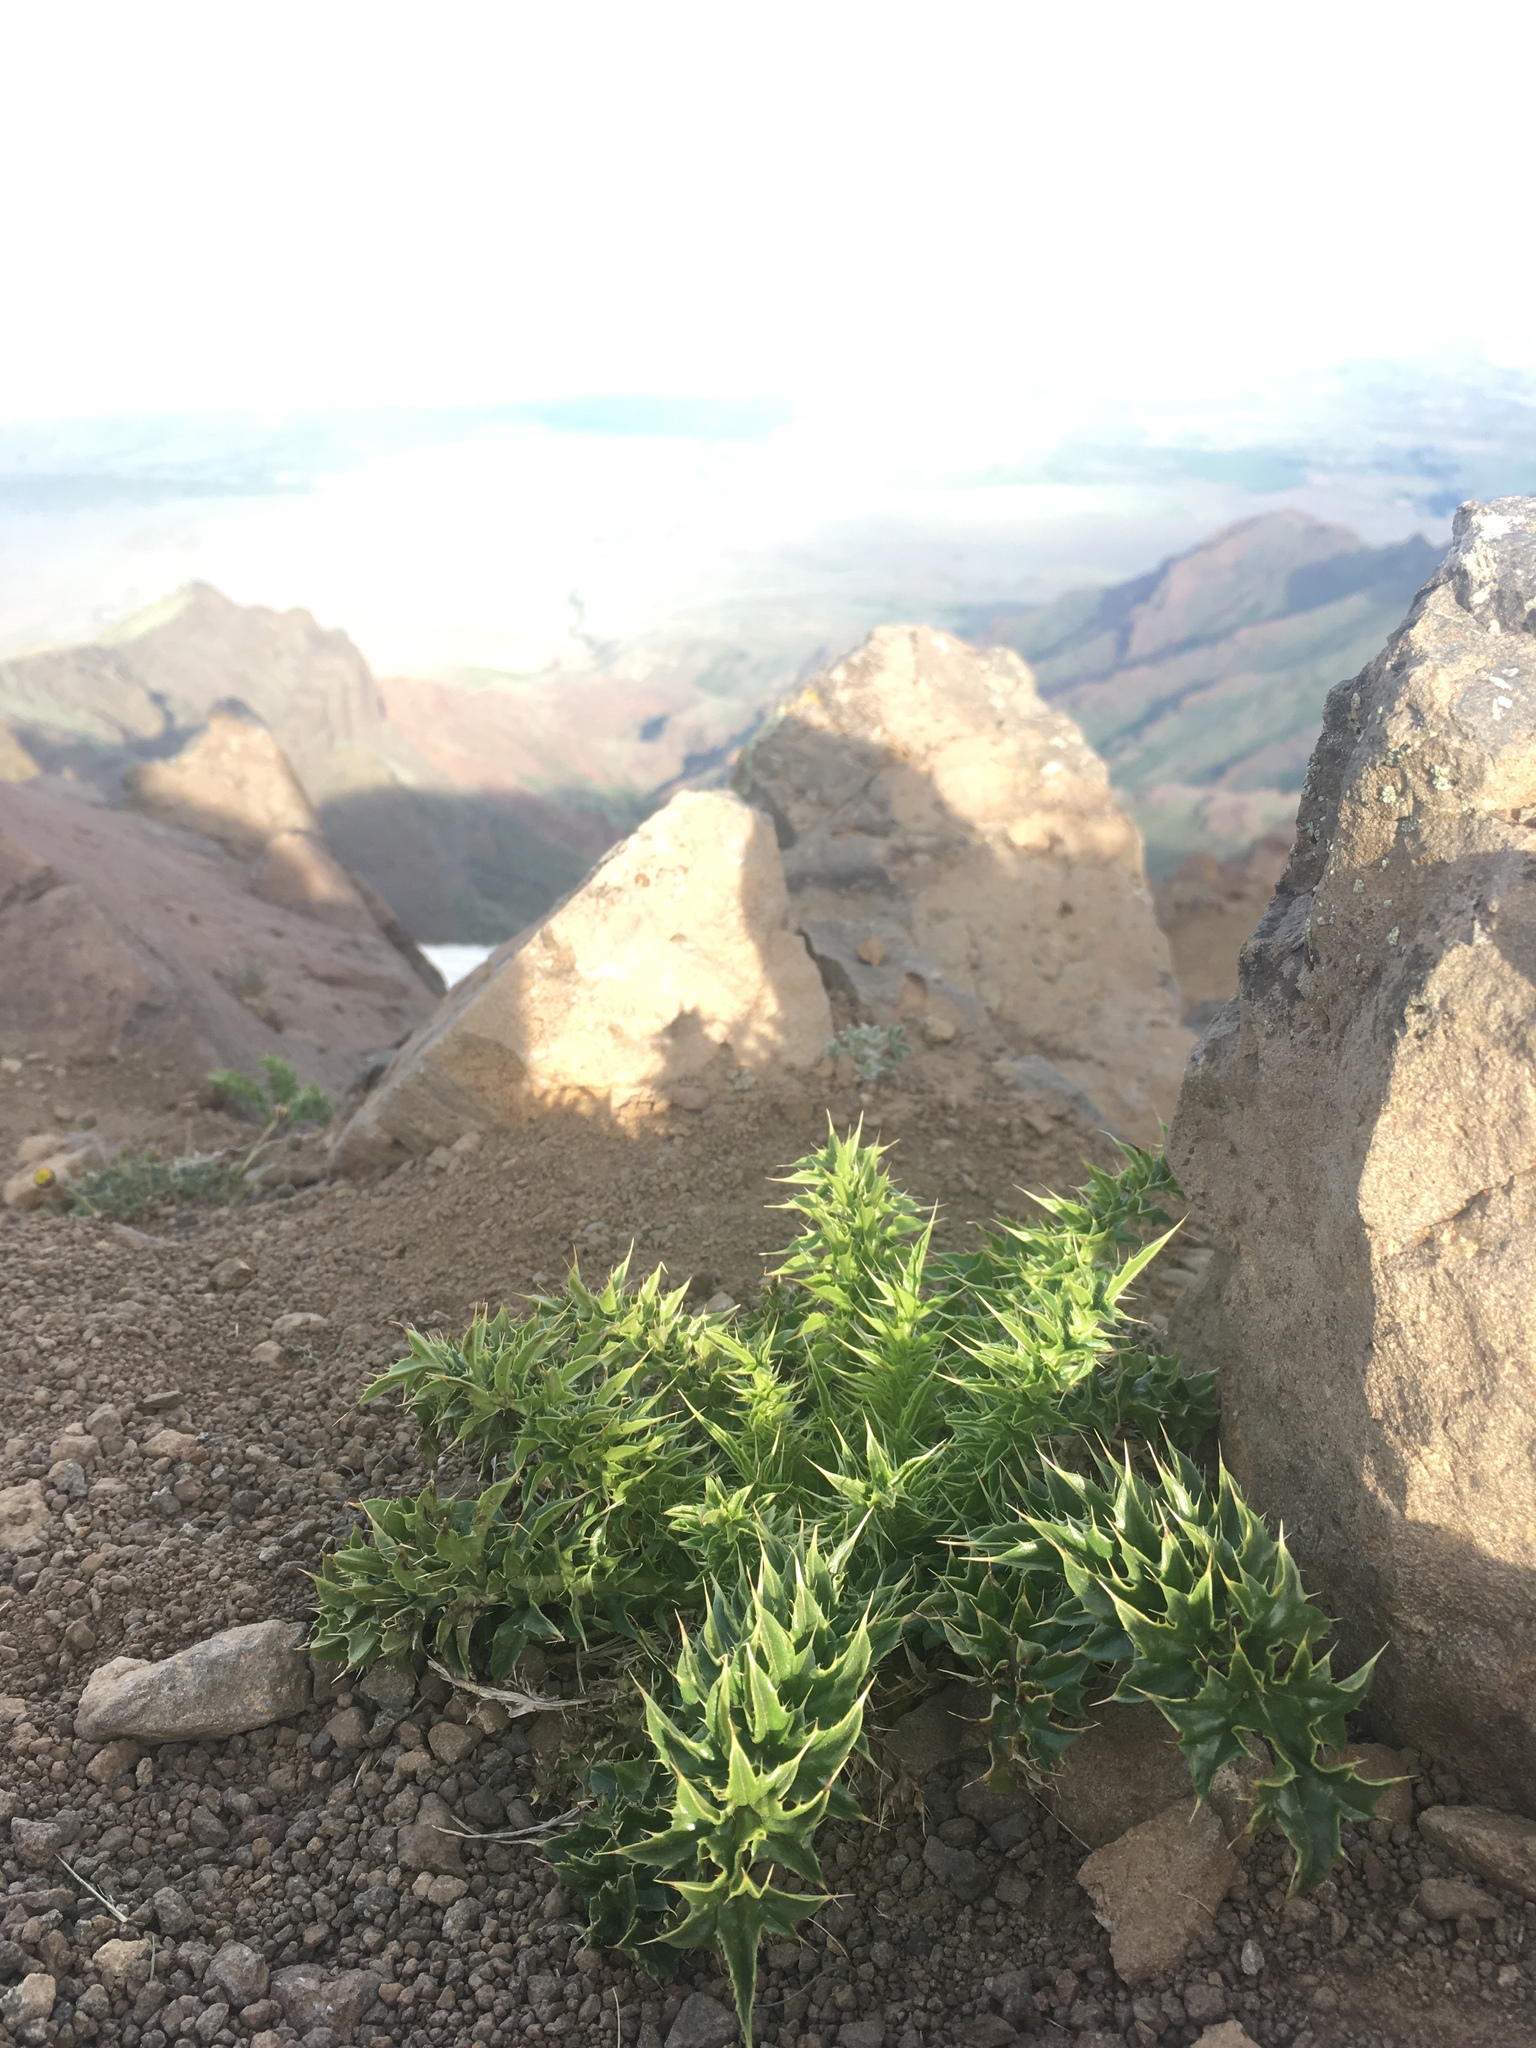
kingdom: Plantae
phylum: Tracheophyta
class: Magnoliopsida
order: Asterales
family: Asteraceae
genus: Cirsium
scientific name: Cirsium peckii
